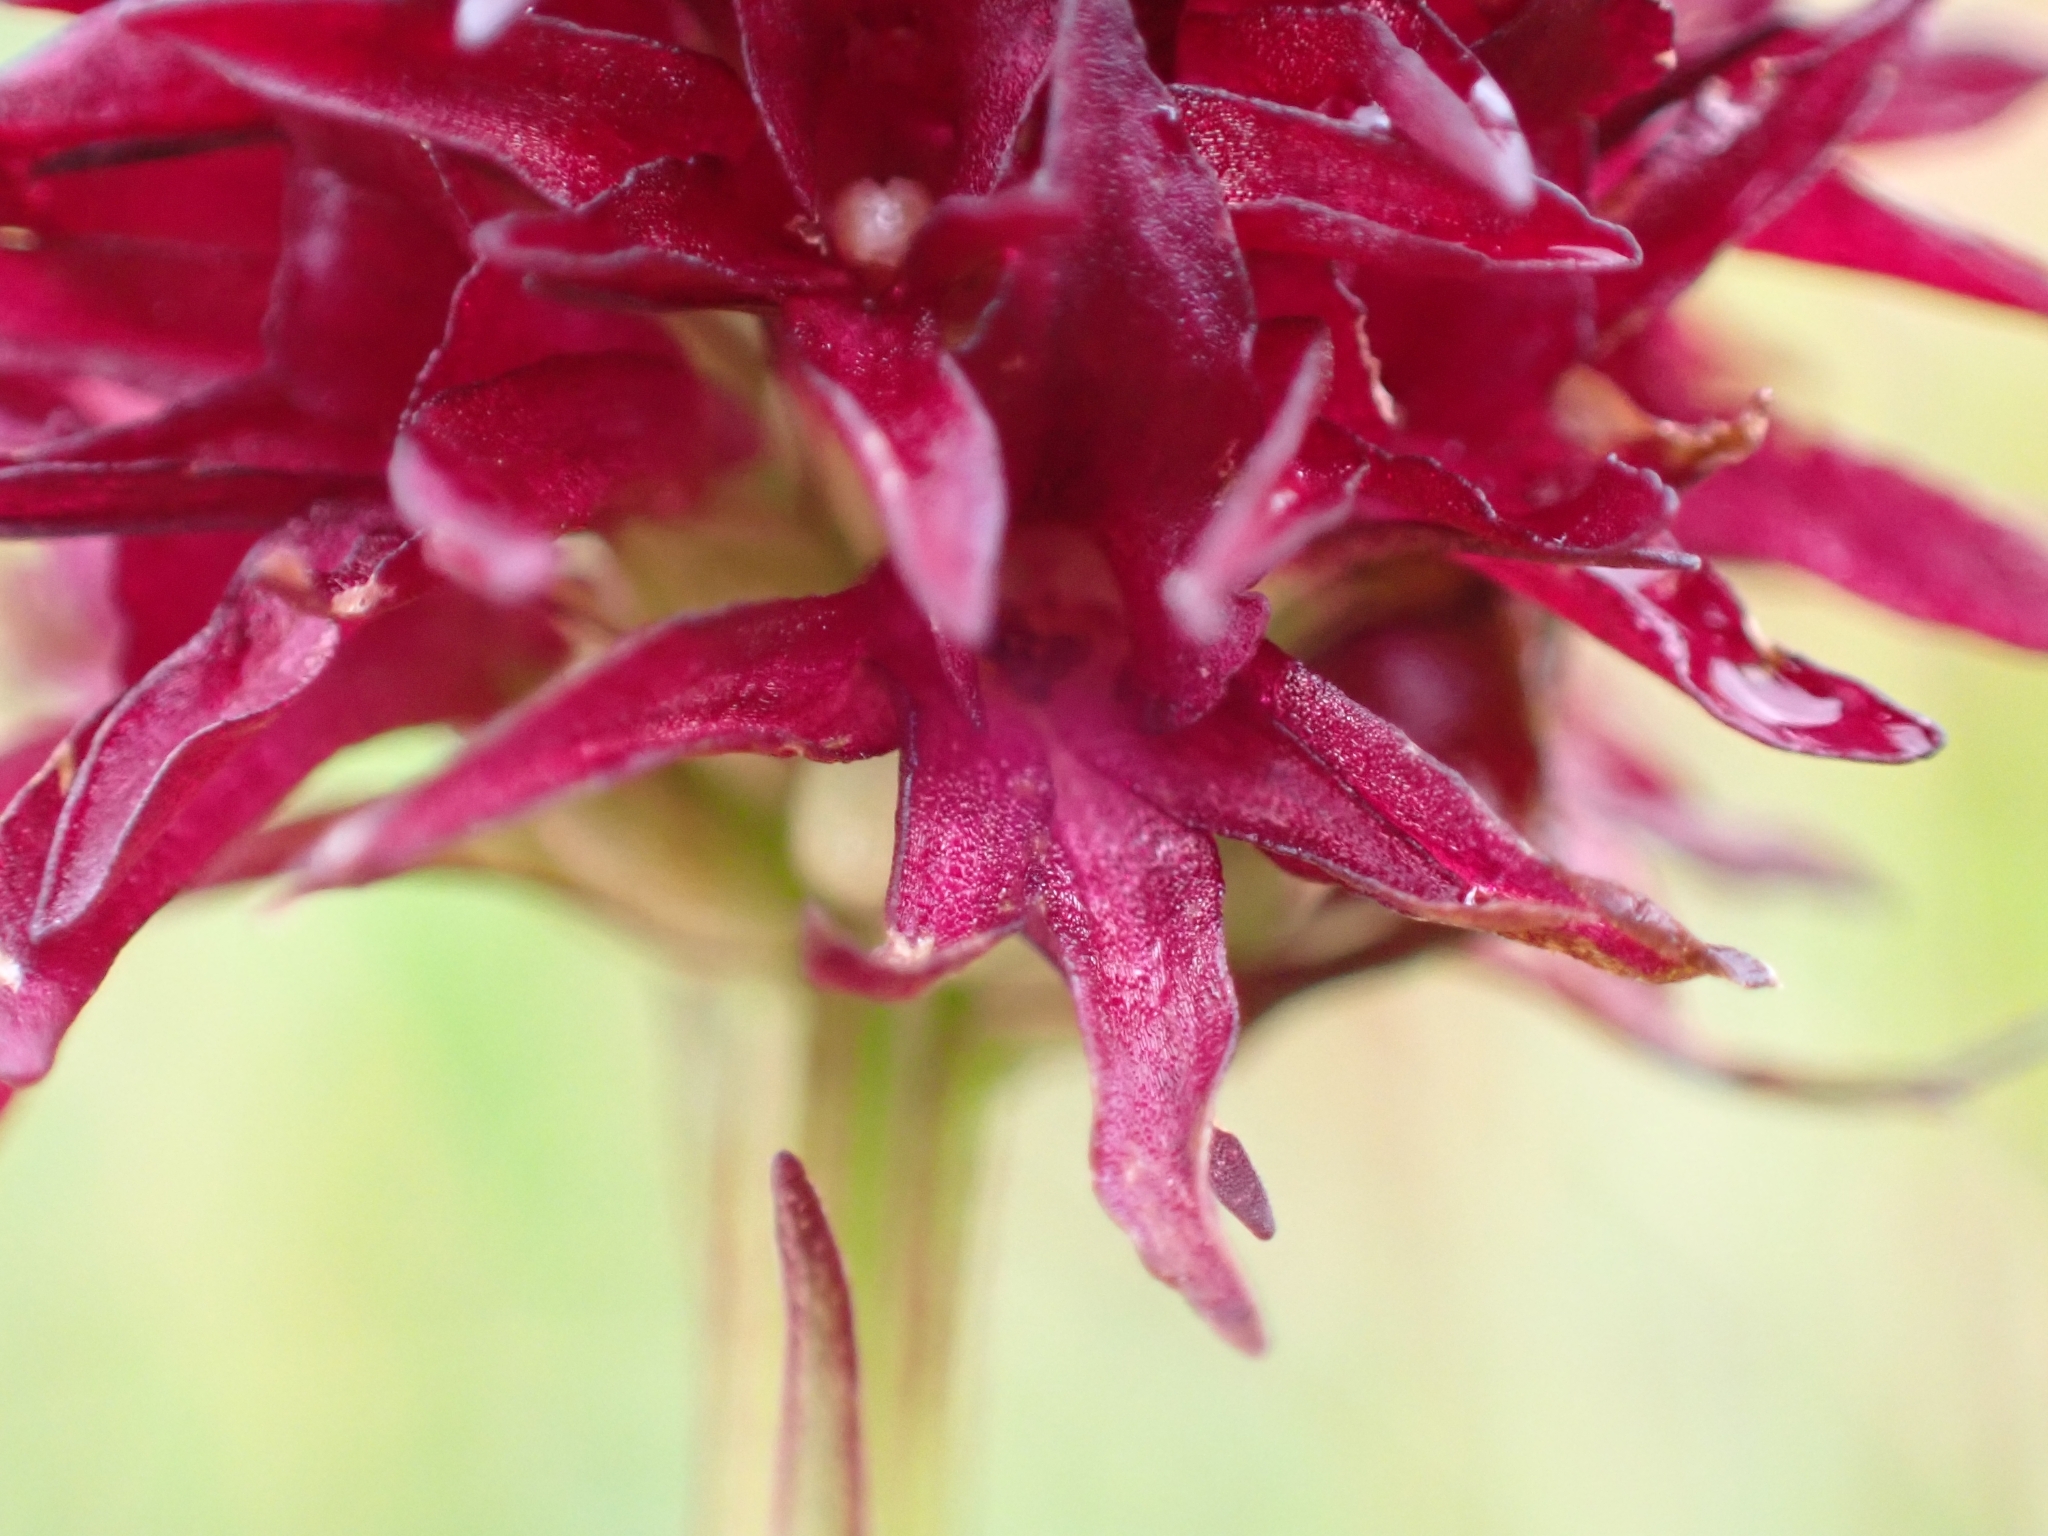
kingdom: Plantae
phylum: Tracheophyta
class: Liliopsida
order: Asparagales
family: Orchidaceae
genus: Gymnadenia
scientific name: Gymnadenia rhellicani
